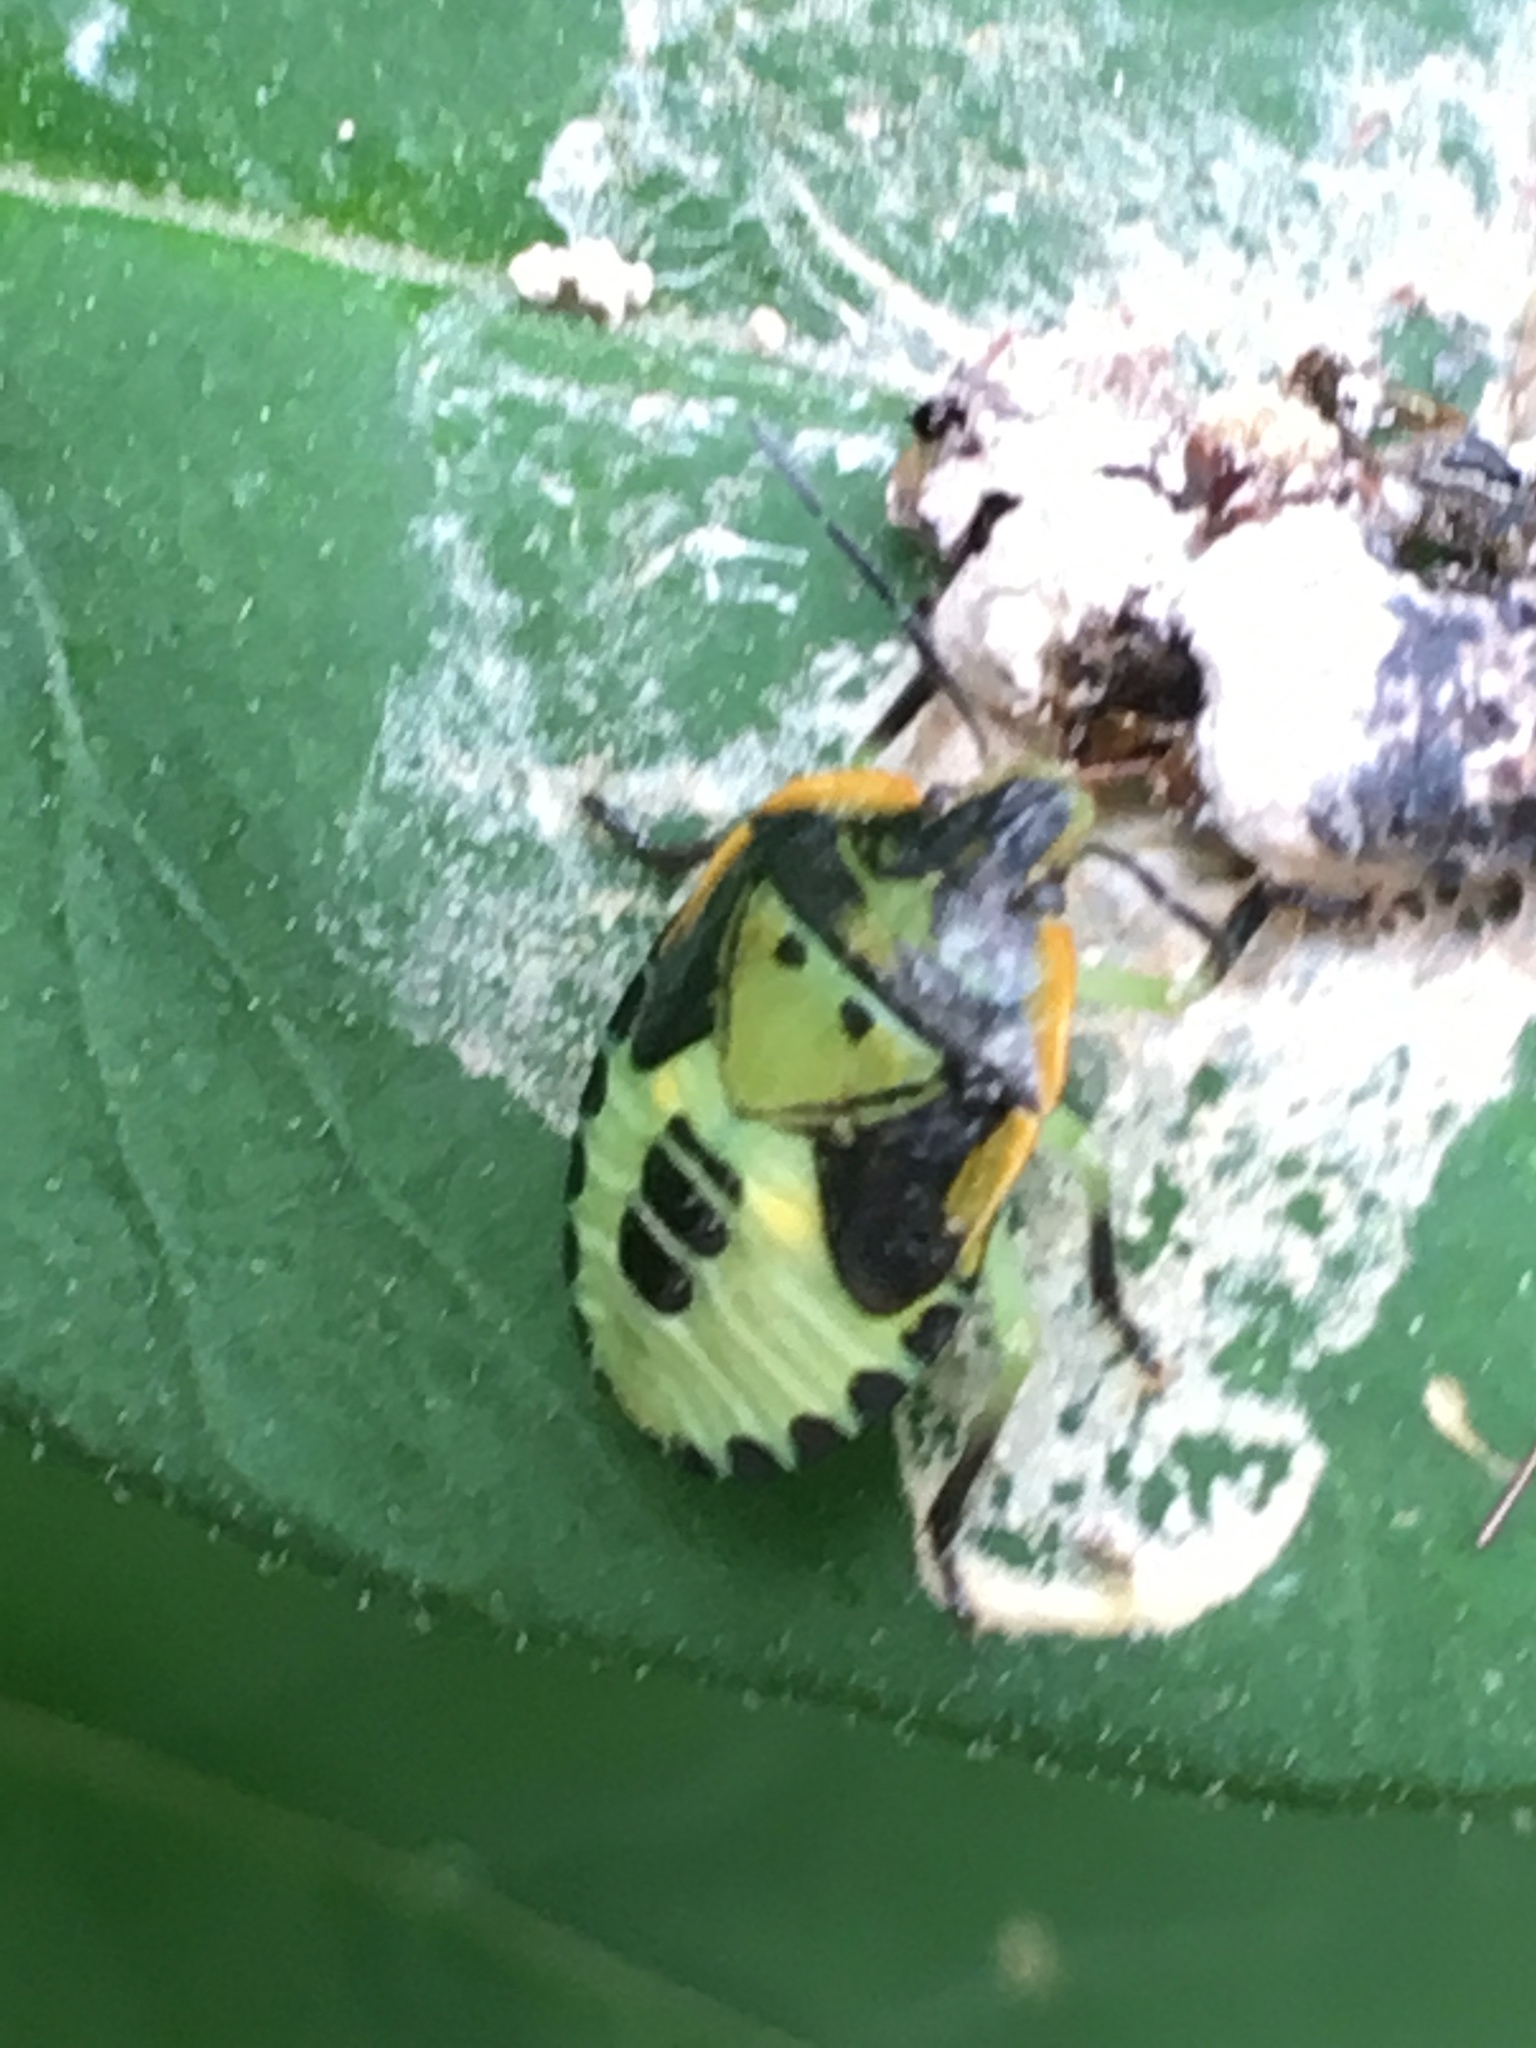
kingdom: Animalia
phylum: Arthropoda
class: Insecta
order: Hemiptera
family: Pentatomidae
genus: Chinavia
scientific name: Chinavia hilaris
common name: Green stink bug
